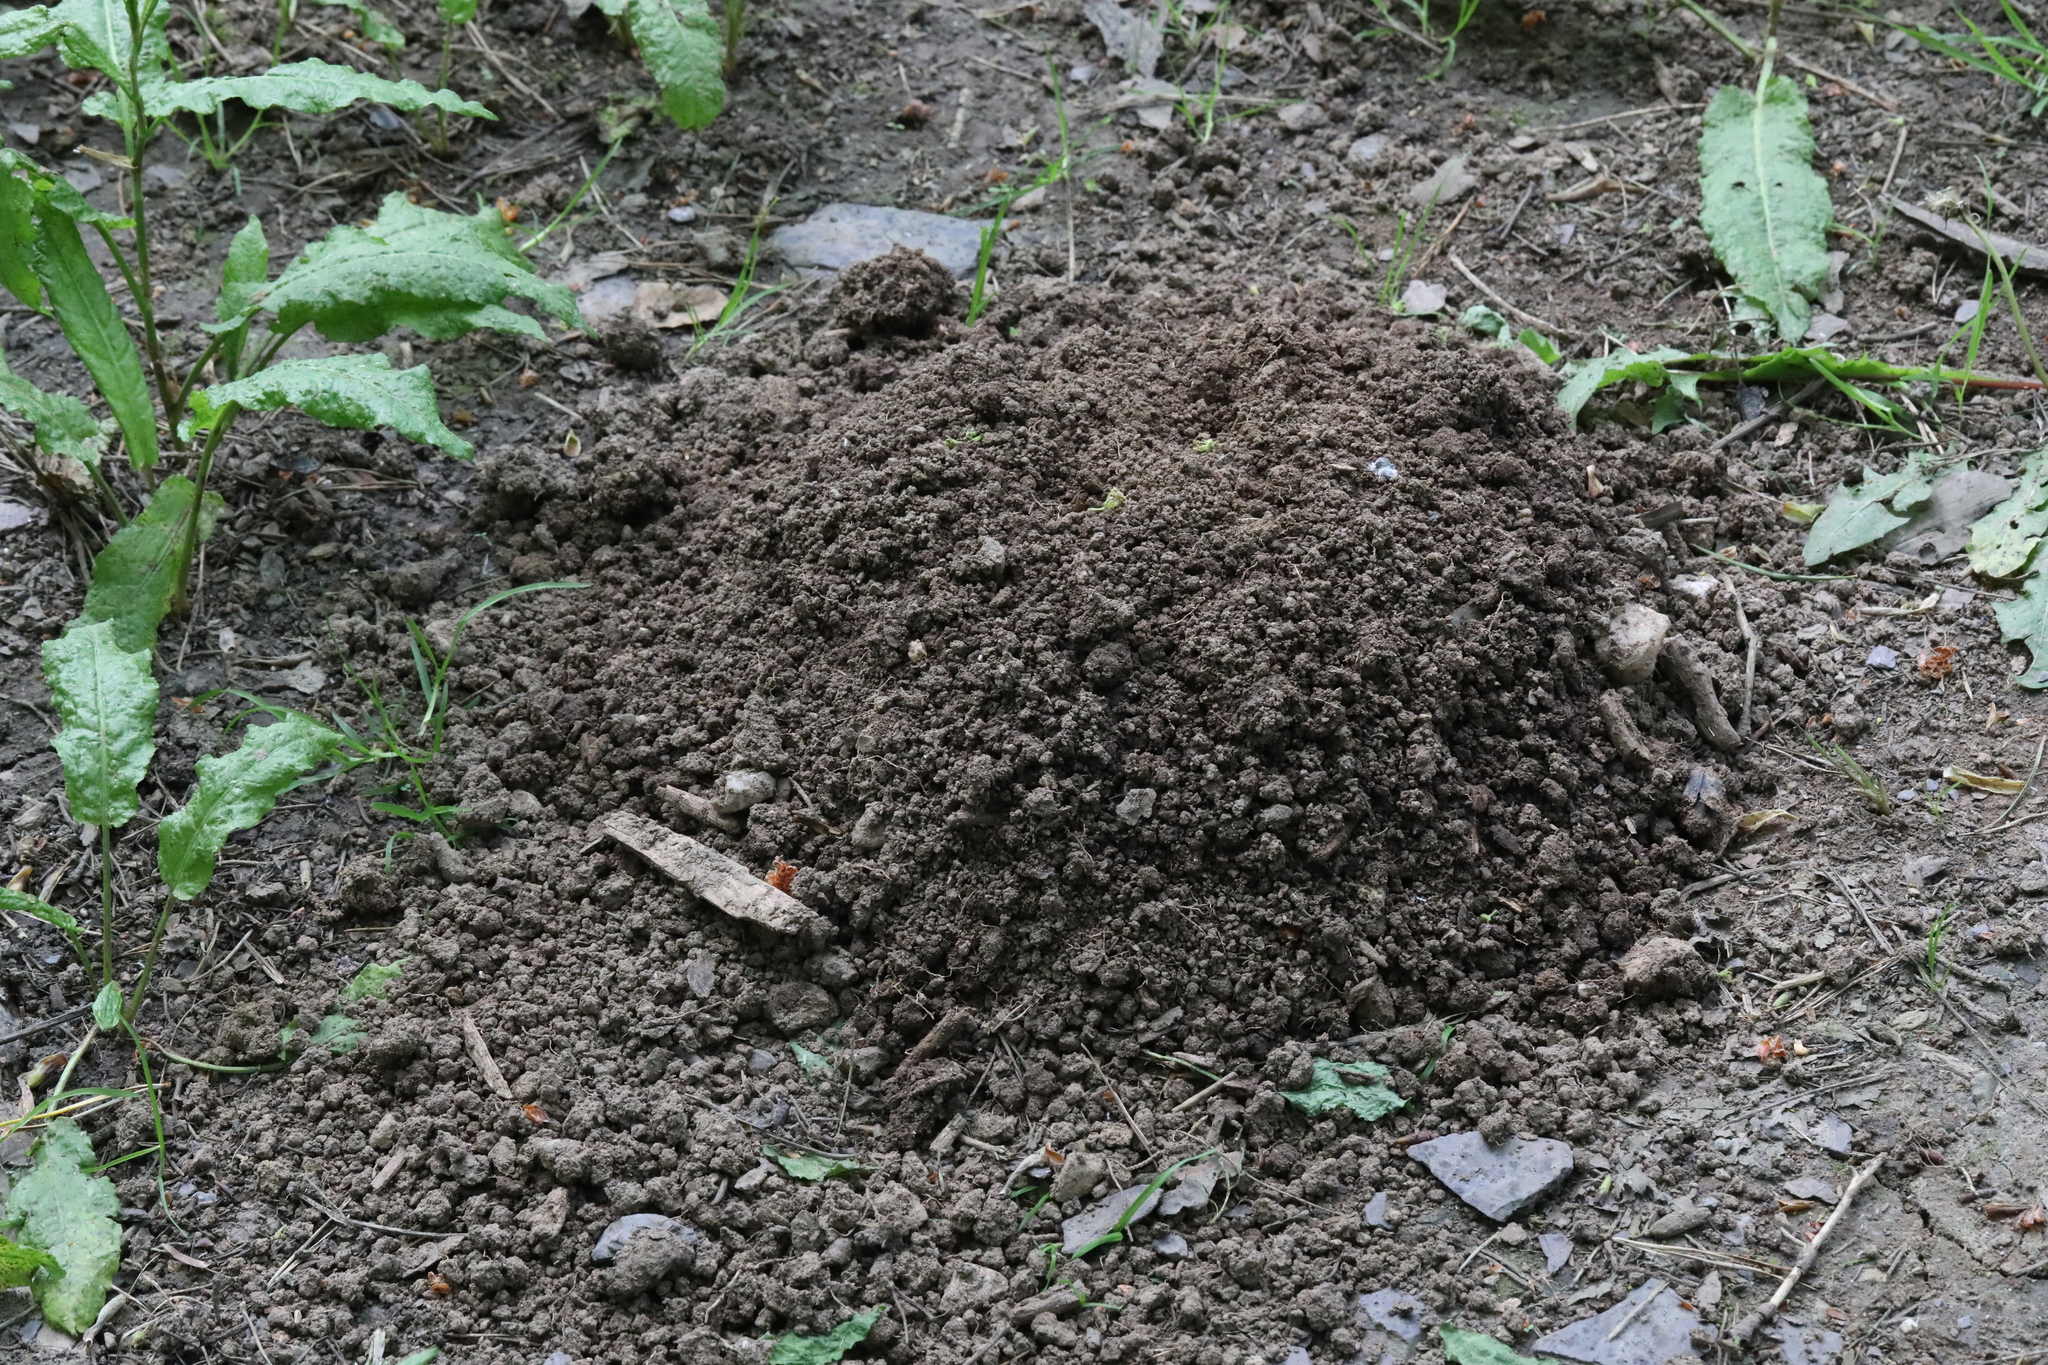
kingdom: Animalia
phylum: Chordata
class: Mammalia
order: Soricomorpha
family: Talpidae
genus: Talpa
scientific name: Talpa europaea
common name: European mole
